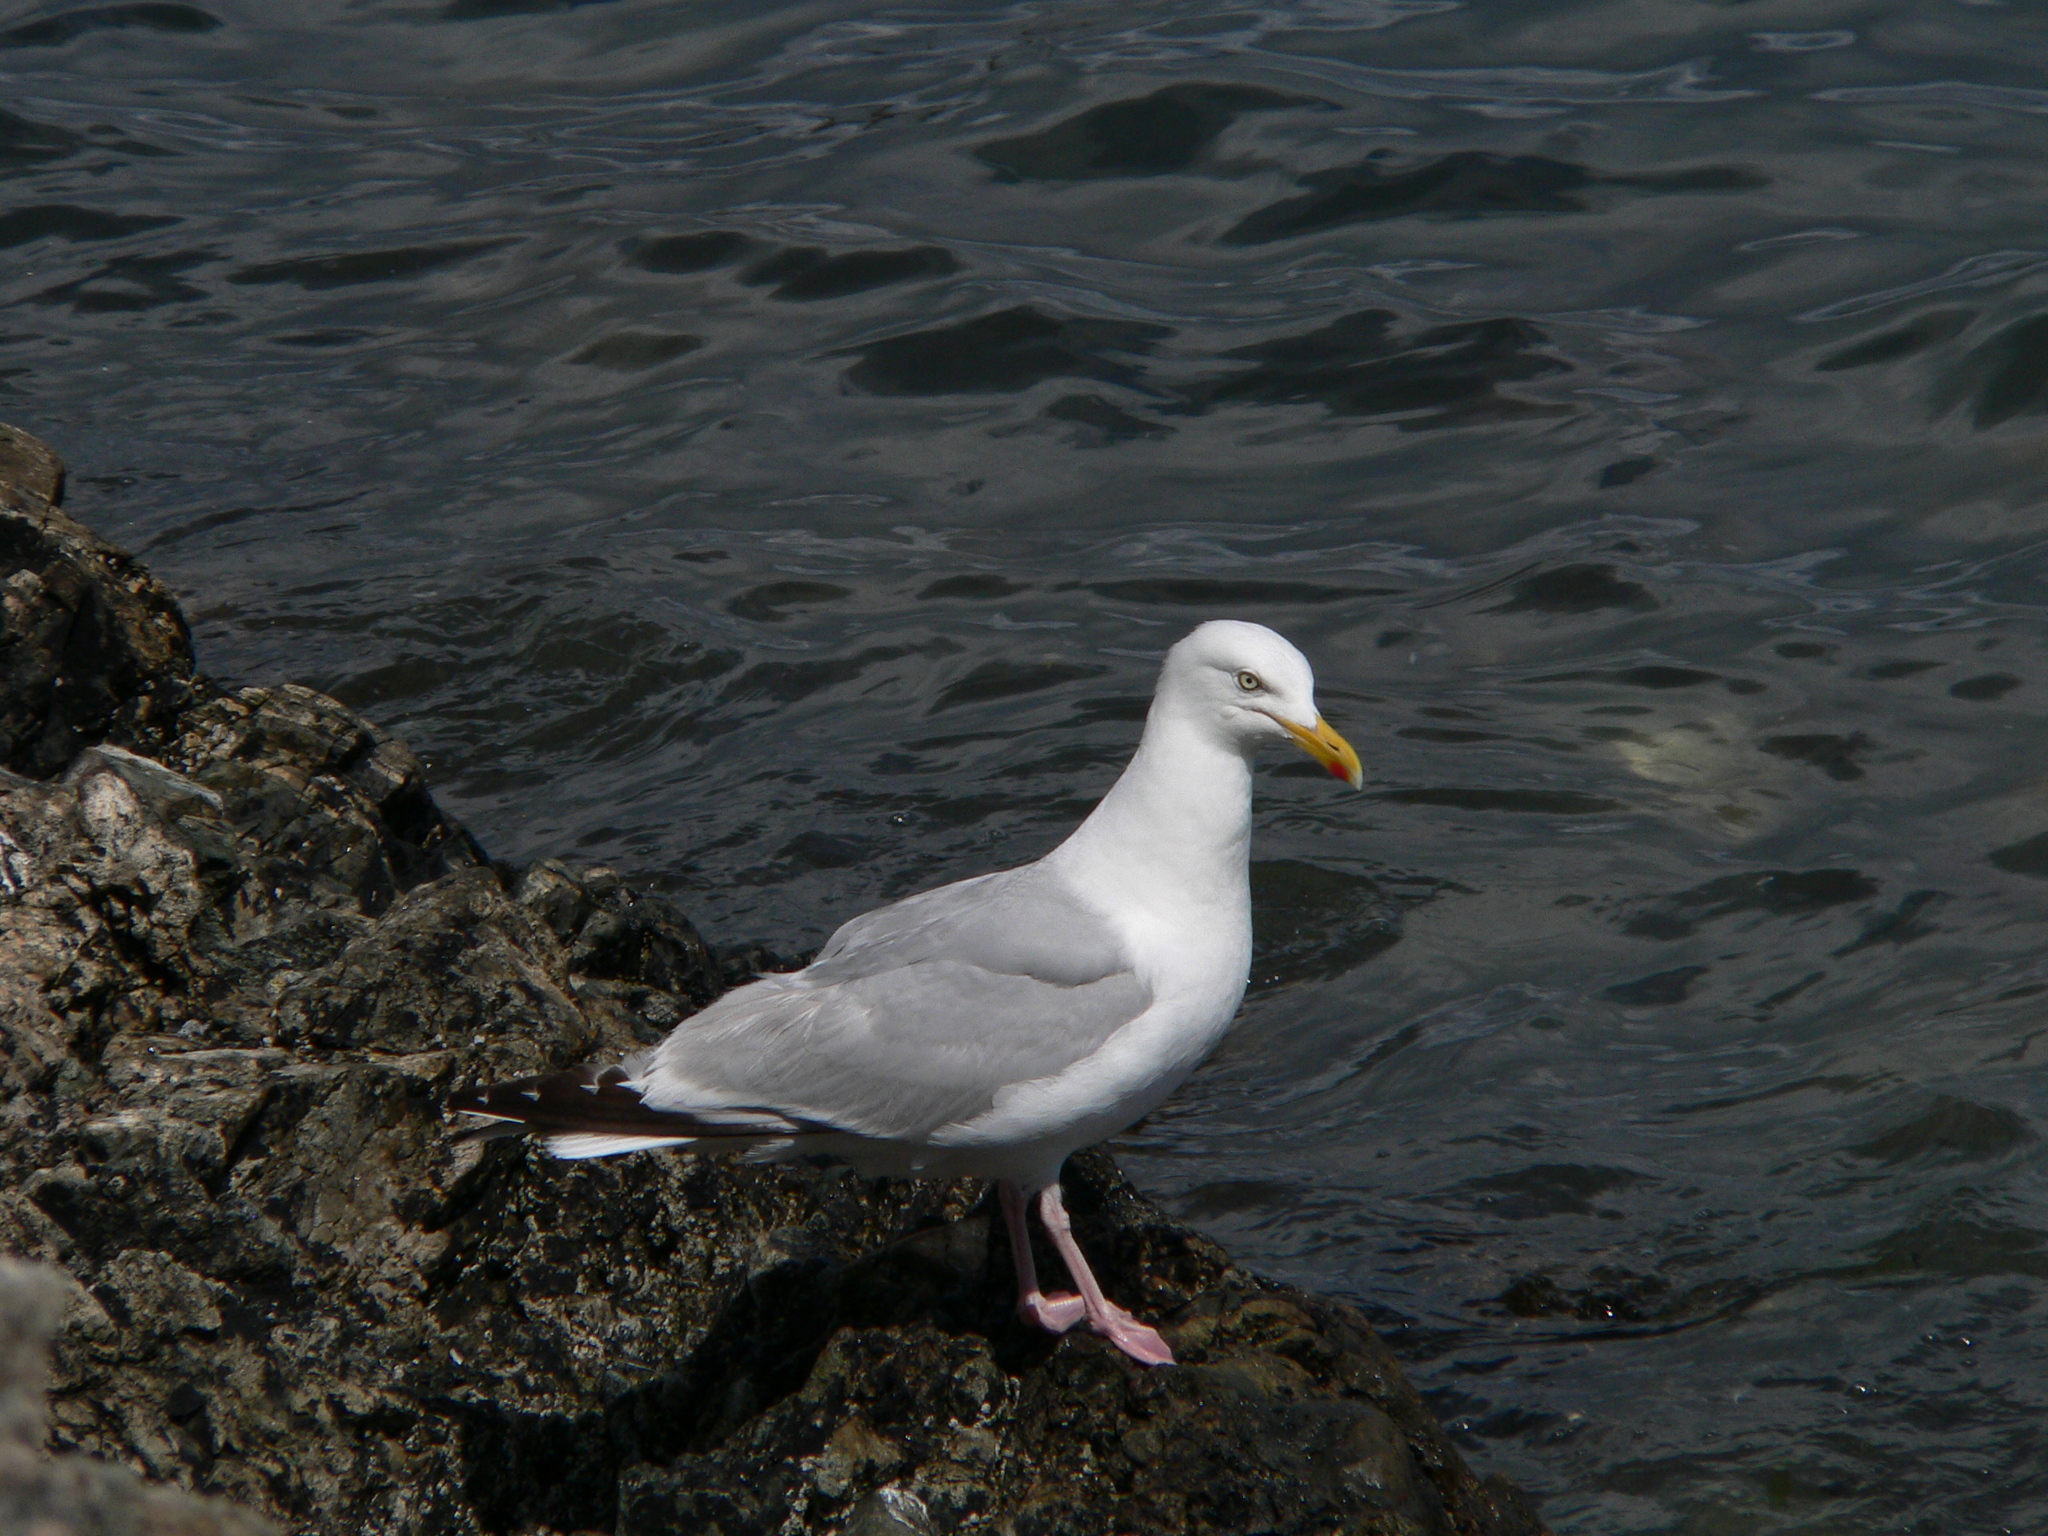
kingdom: Animalia
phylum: Chordata
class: Aves
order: Charadriiformes
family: Laridae
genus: Larus
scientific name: Larus argentatus
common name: Herring gull
